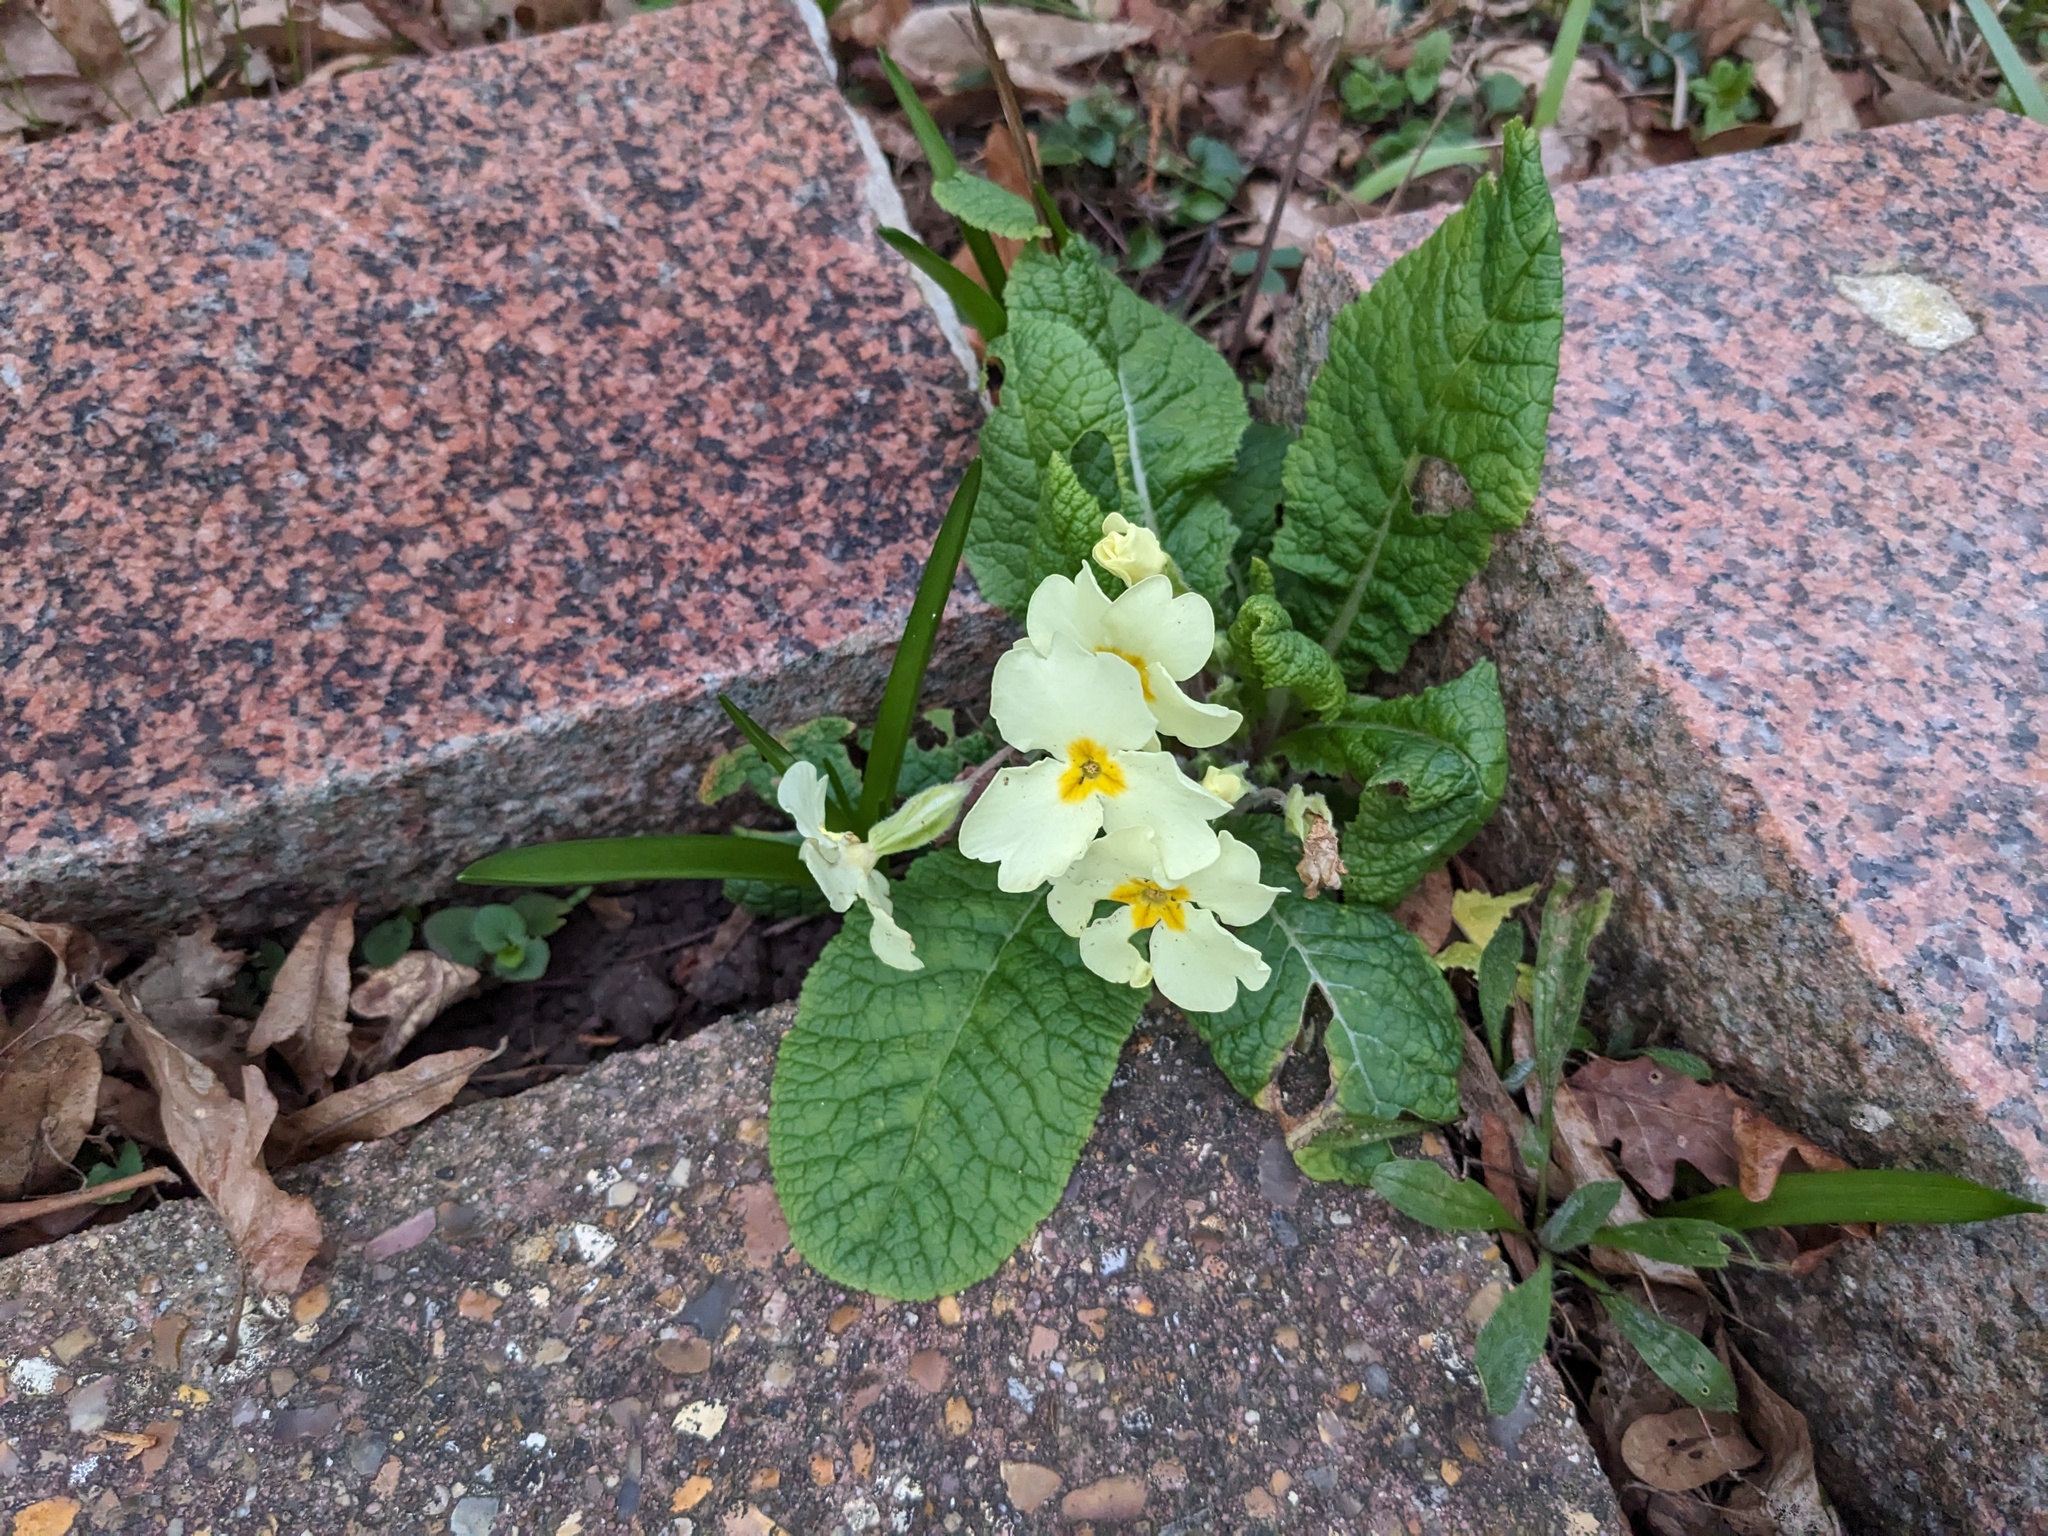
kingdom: Plantae
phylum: Tracheophyta
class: Magnoliopsida
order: Ericales
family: Primulaceae
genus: Primula
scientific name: Primula vulgaris
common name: Primrose
